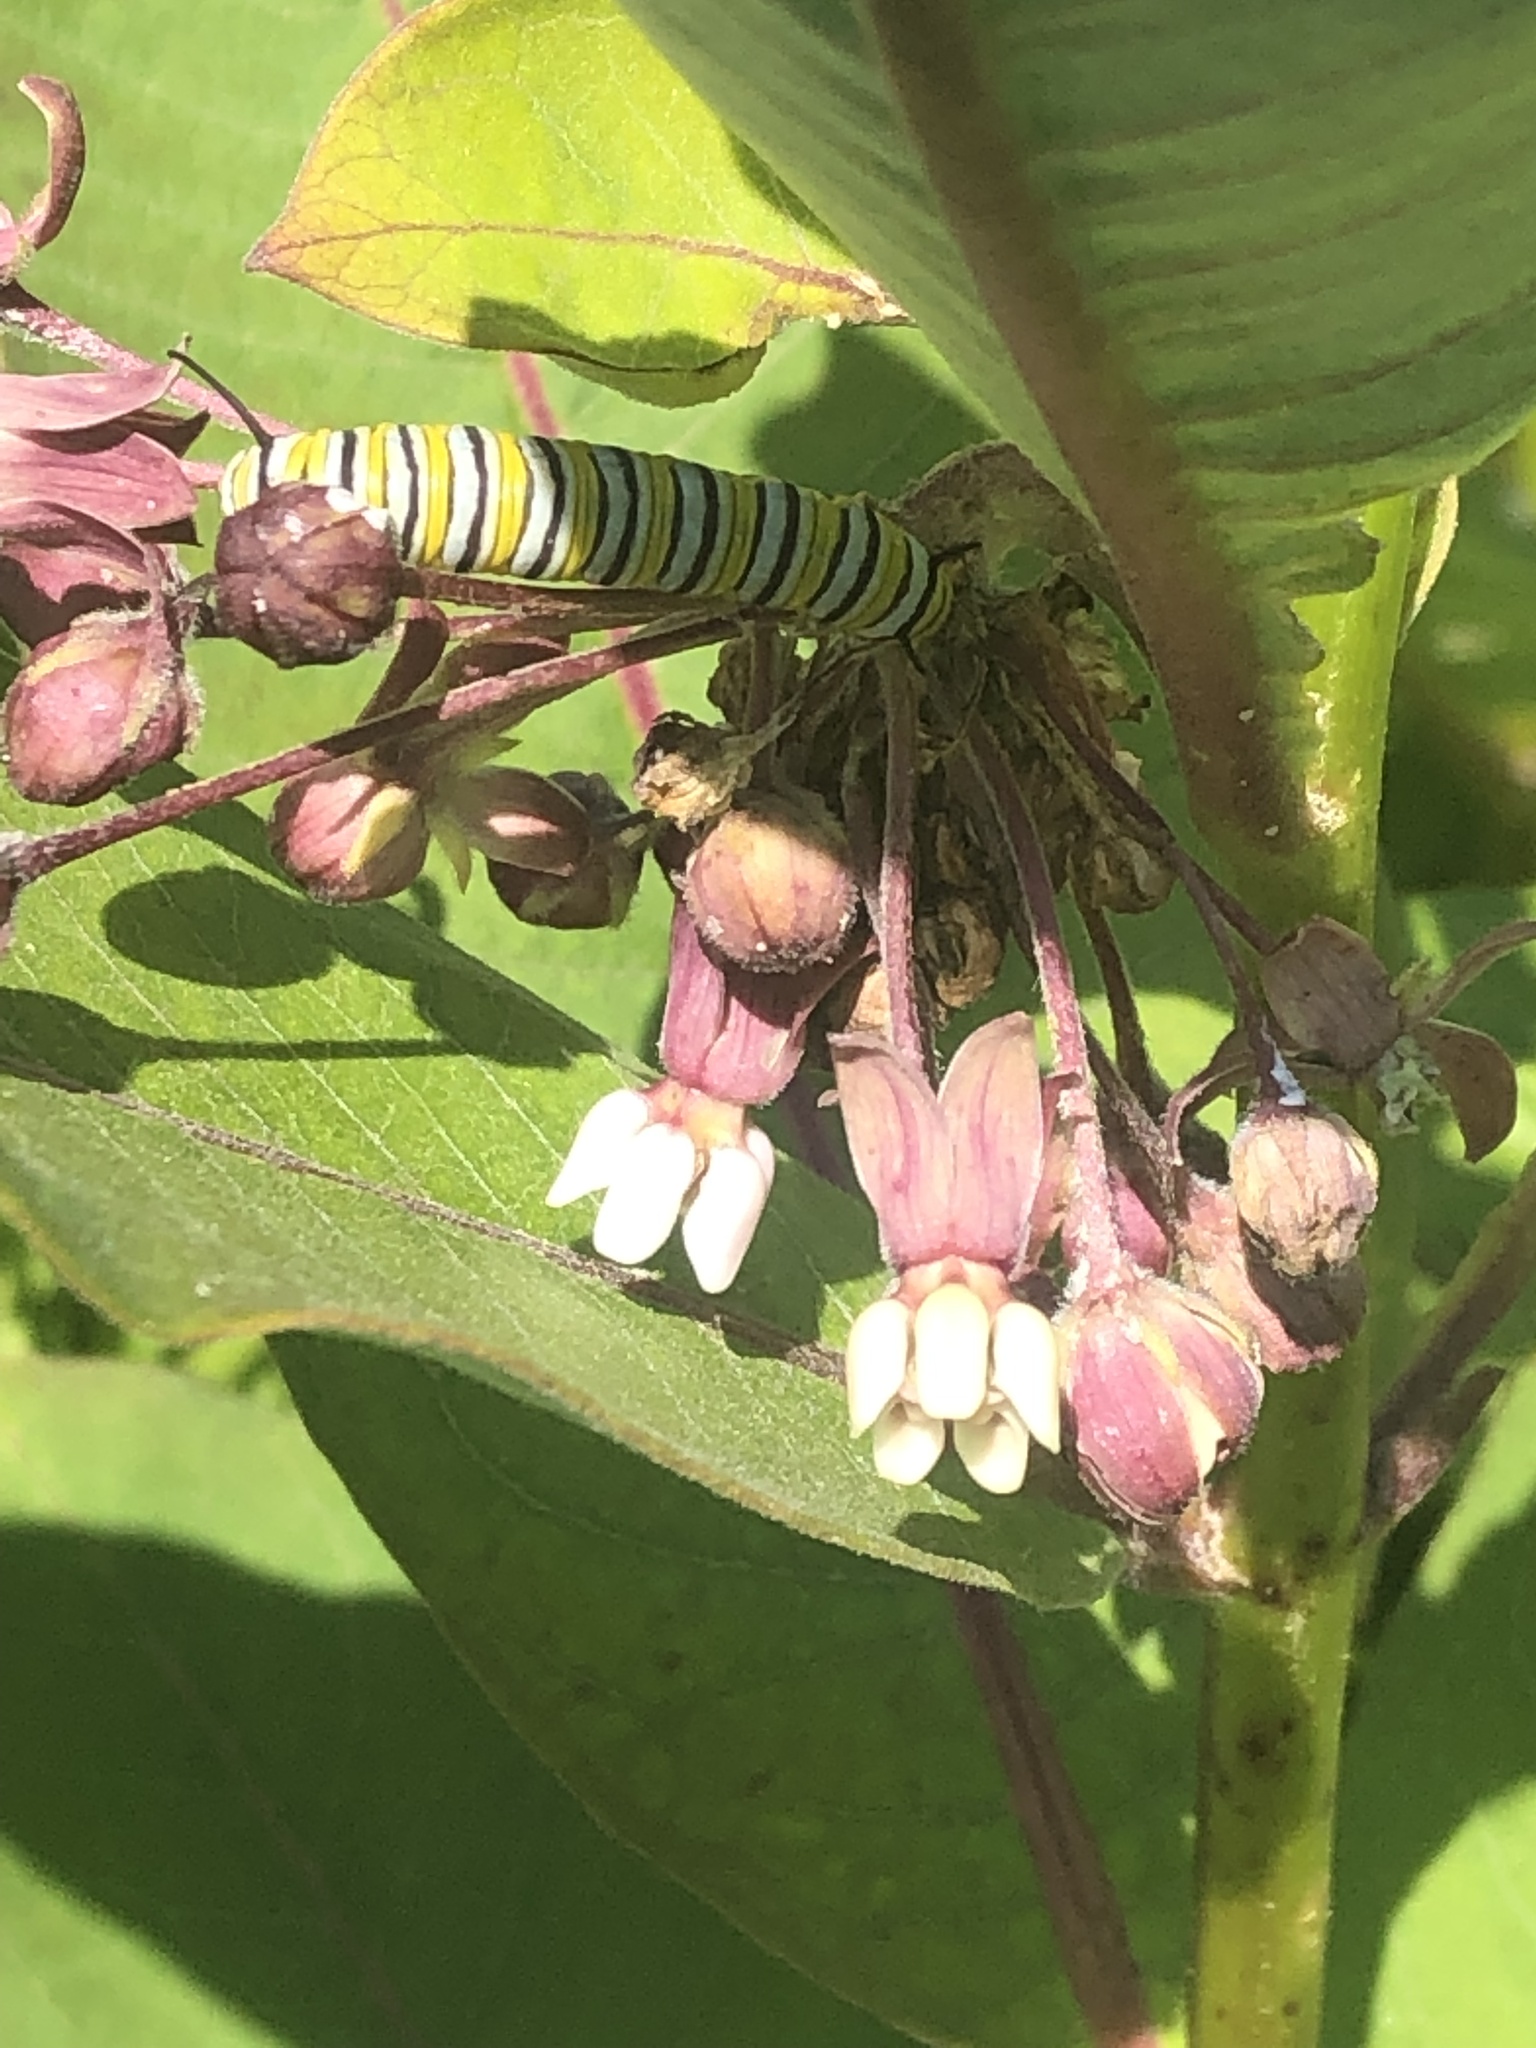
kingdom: Animalia
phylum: Arthropoda
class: Insecta
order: Lepidoptera
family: Nymphalidae
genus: Danaus
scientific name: Danaus plexippus
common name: Monarch
